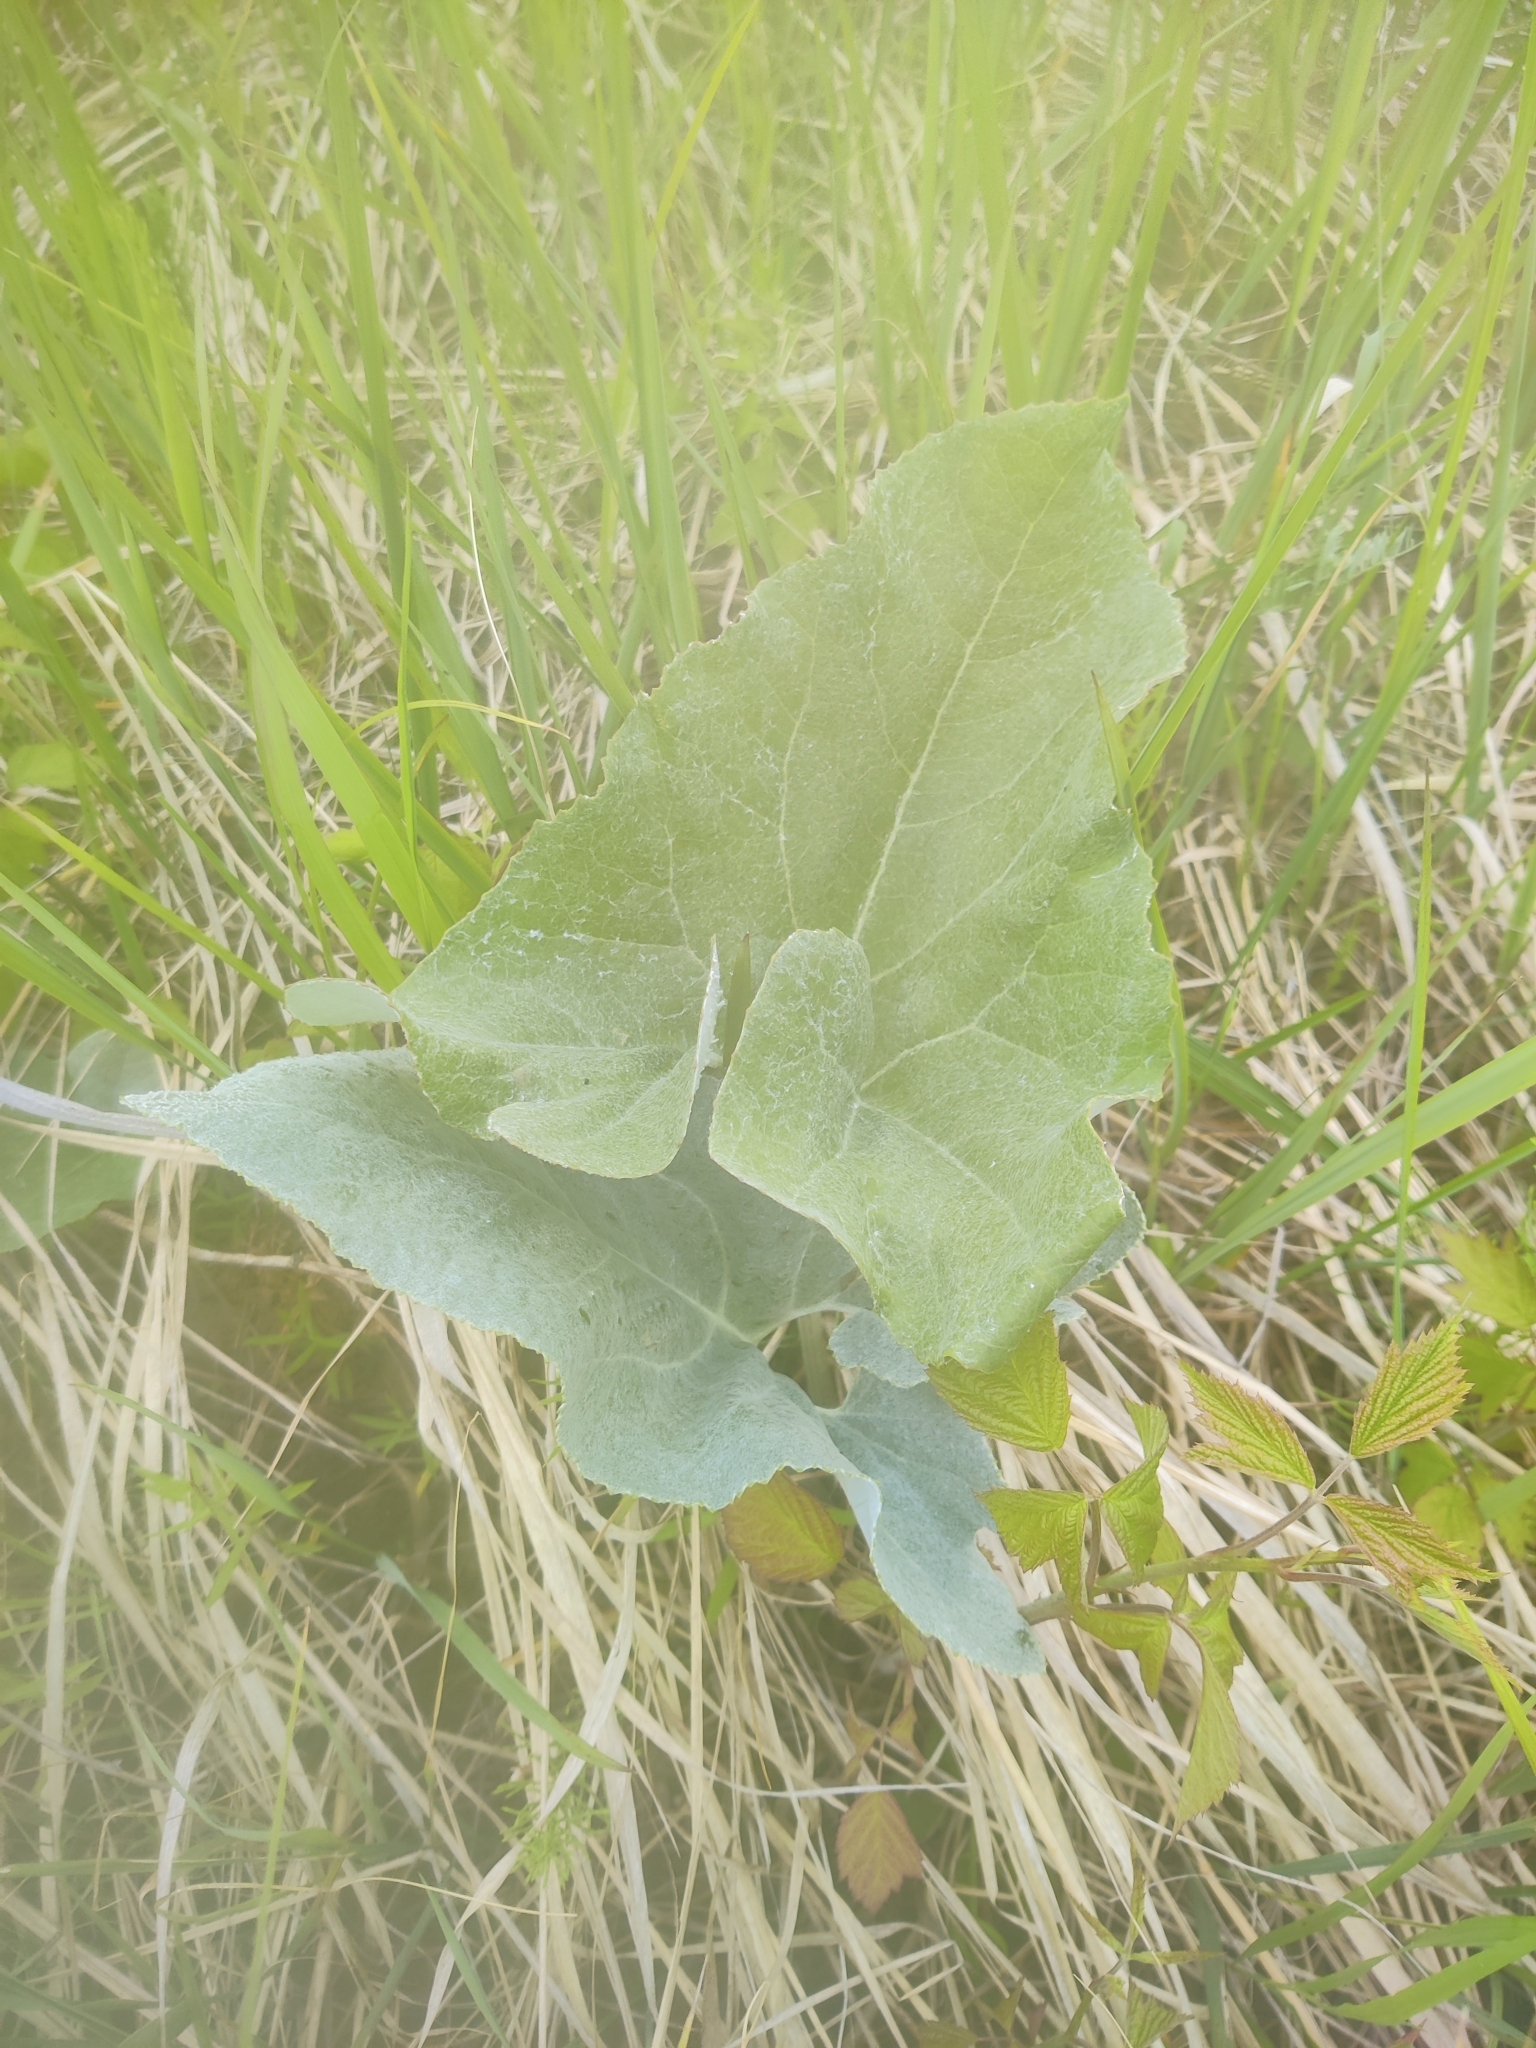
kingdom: Plantae
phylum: Tracheophyta
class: Magnoliopsida
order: Asterales
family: Asteraceae
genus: Petasites
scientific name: Petasites spurius
